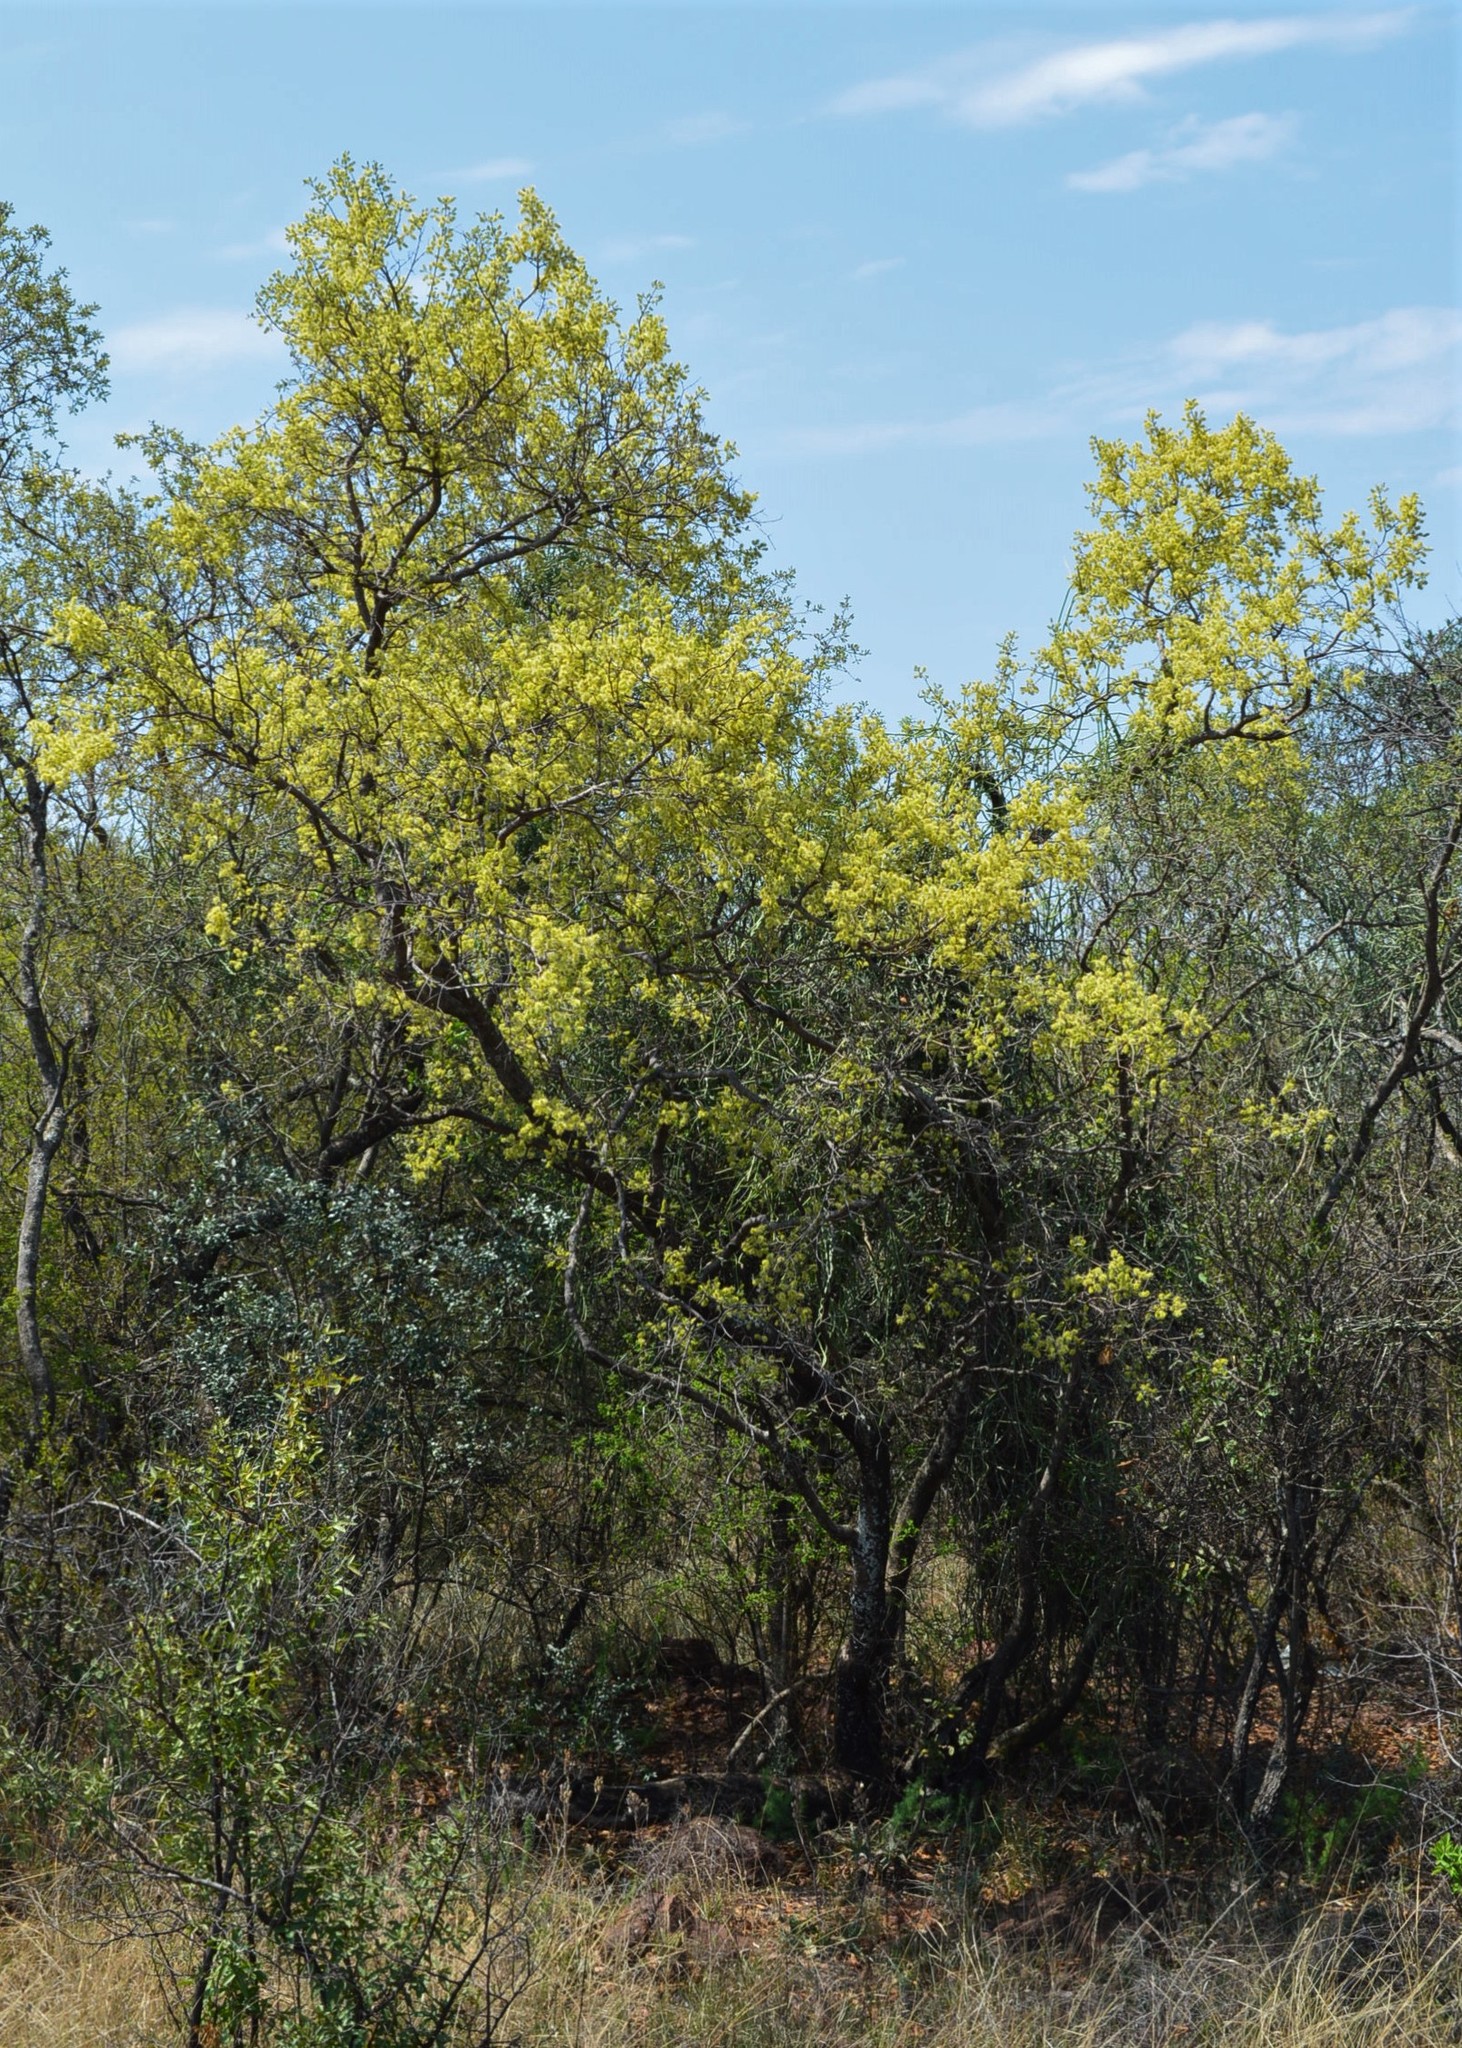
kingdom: Plantae
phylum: Tracheophyta
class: Magnoliopsida
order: Myrtales
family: Combretaceae
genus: Combretum
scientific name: Combretum molle
